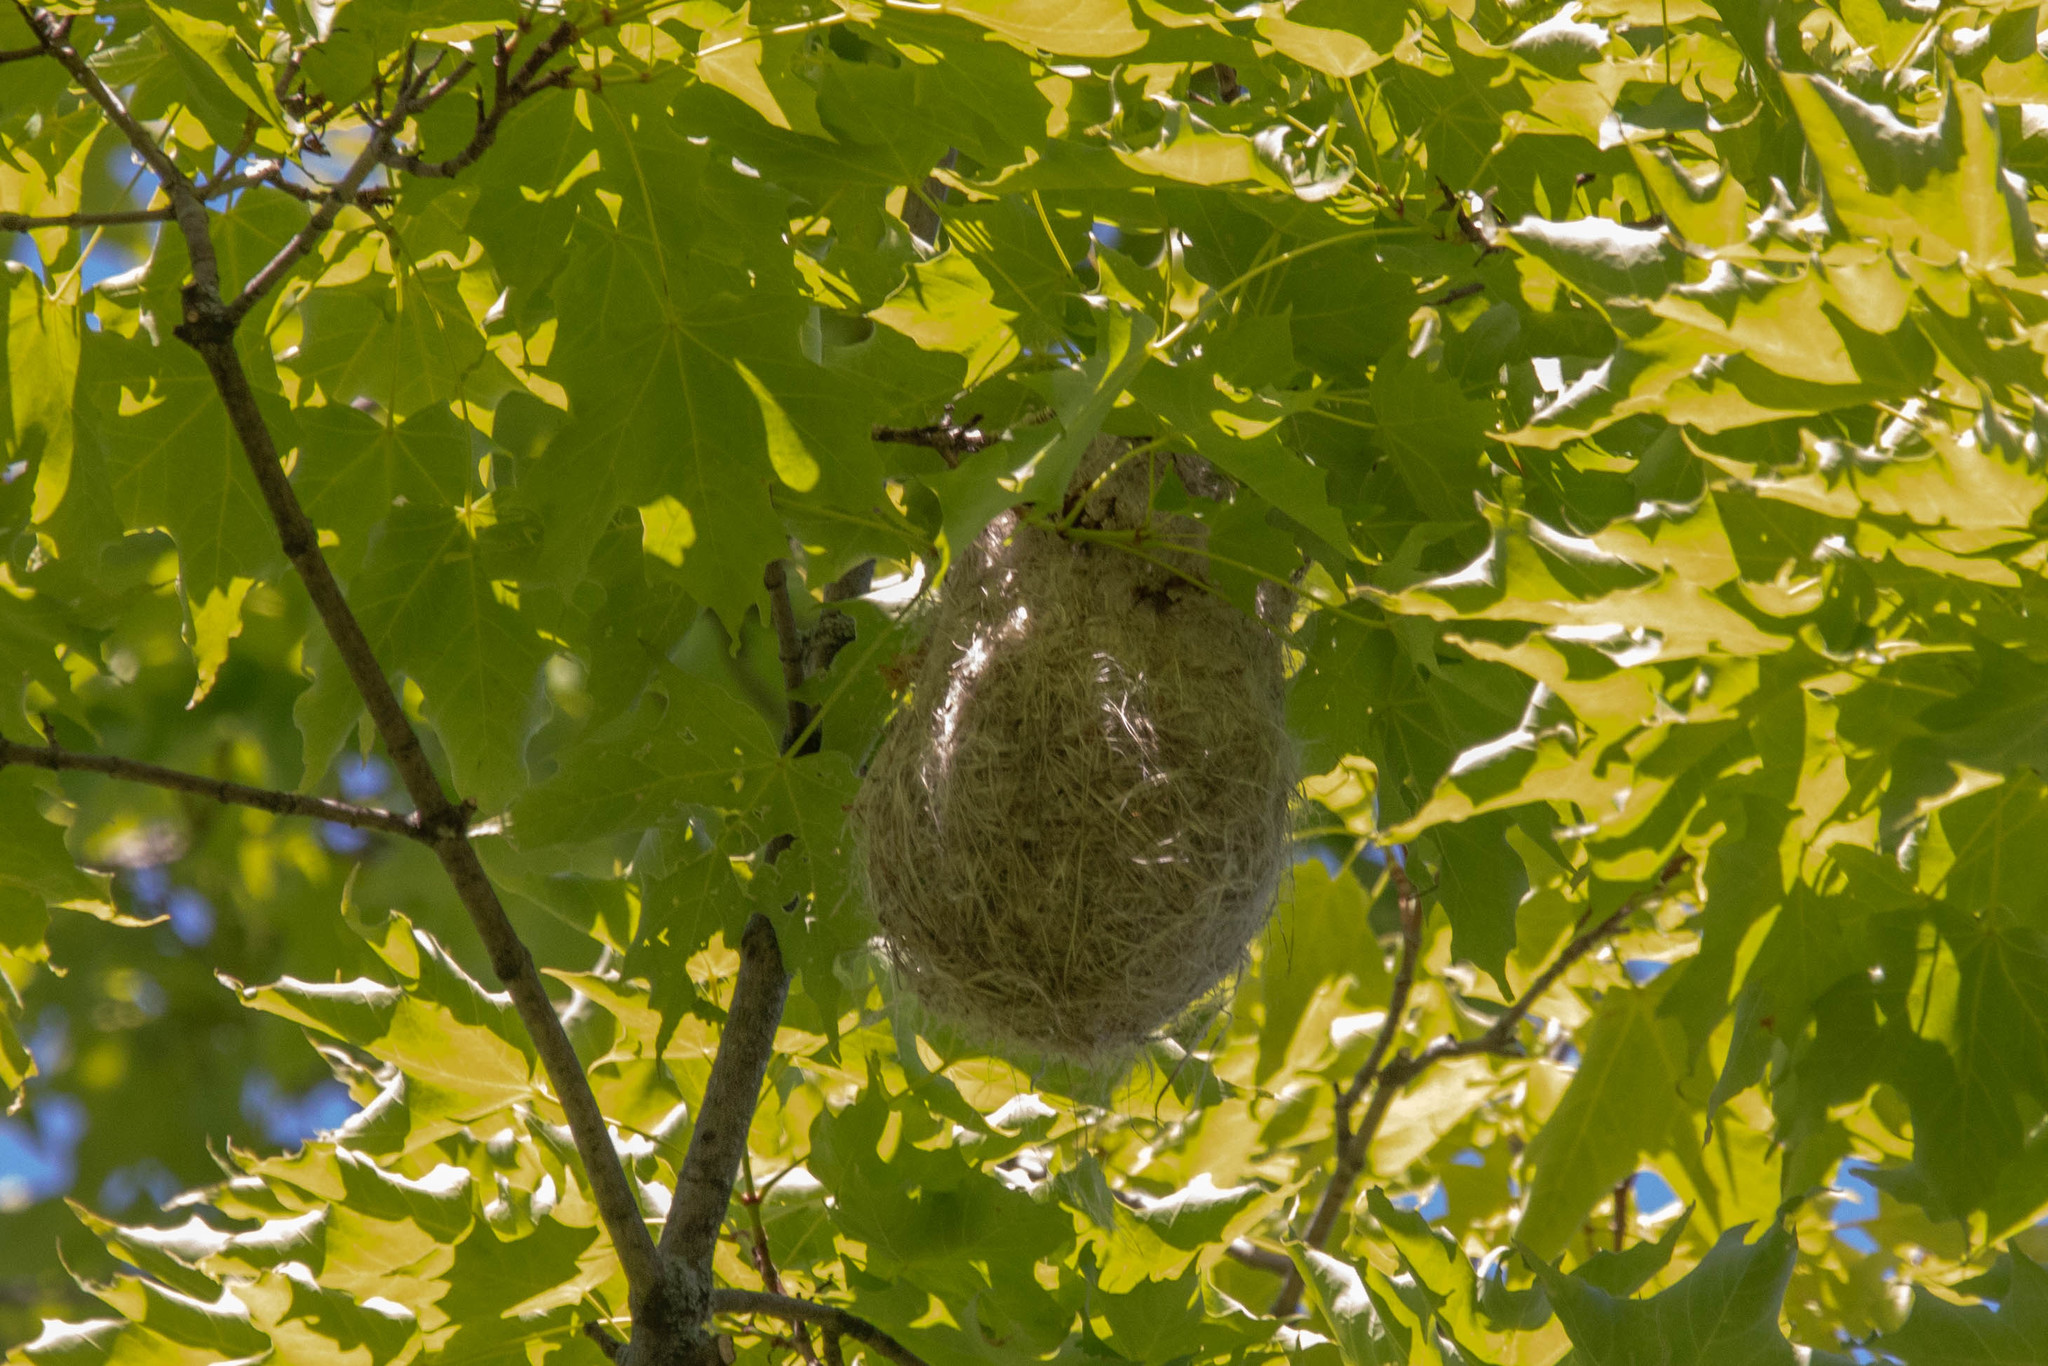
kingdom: Animalia
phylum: Chordata
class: Aves
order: Passeriformes
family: Icteridae
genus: Icterus
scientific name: Icterus galbula
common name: Baltimore oriole
